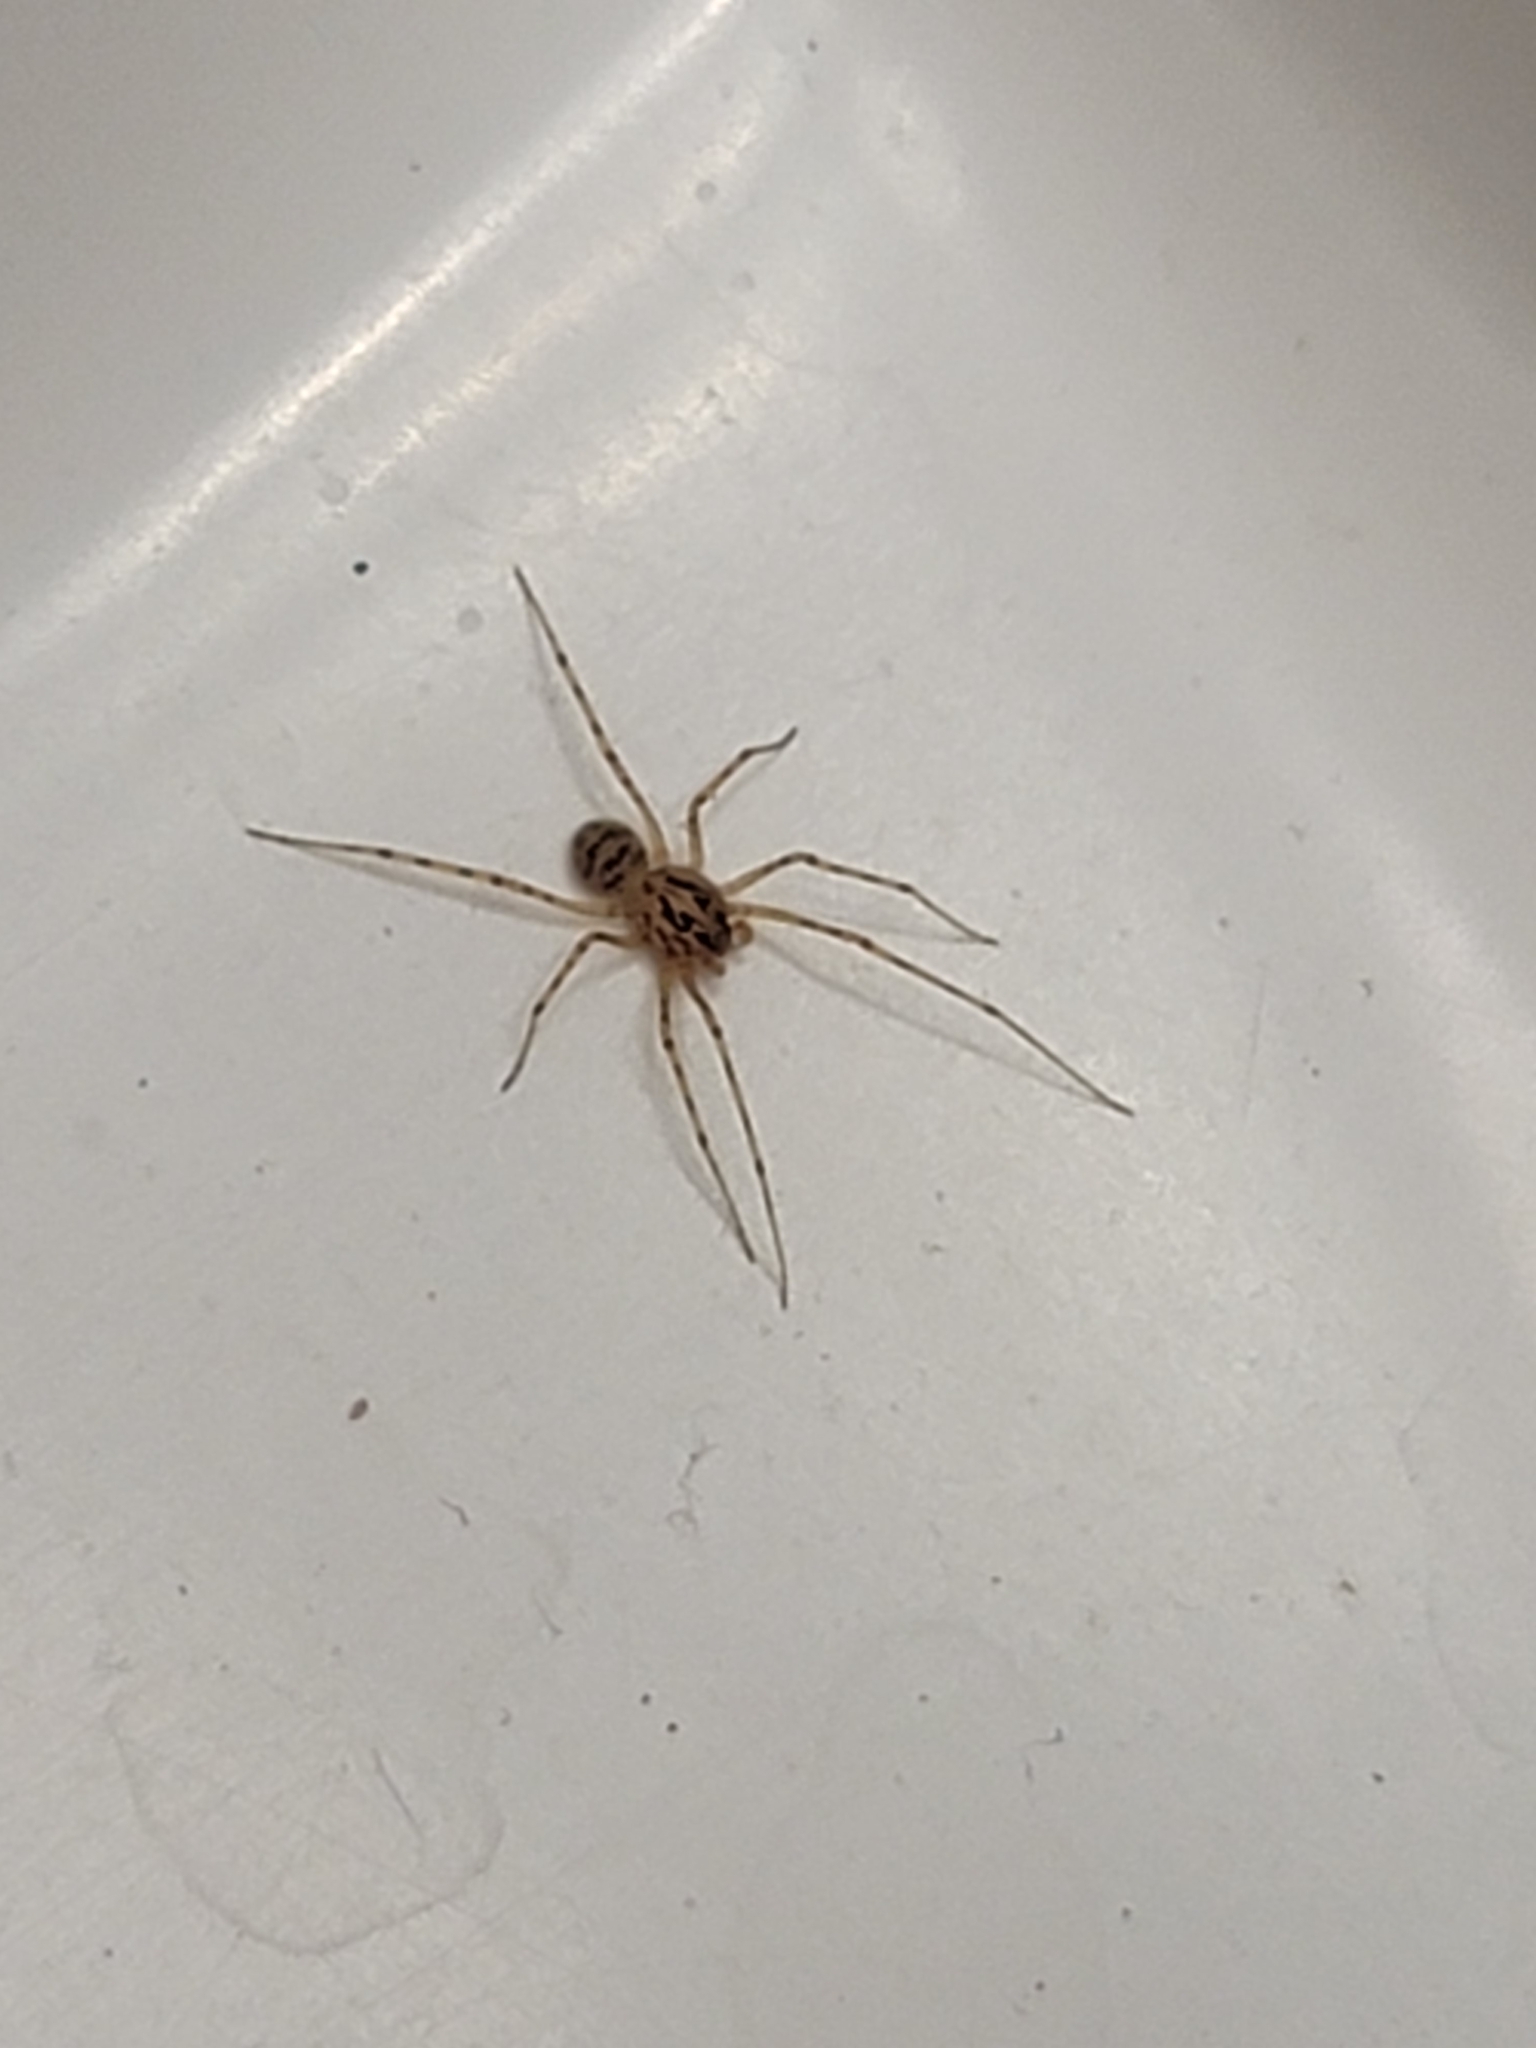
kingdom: Animalia
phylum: Arthropoda
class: Arachnida
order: Araneae
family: Scytodidae
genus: Scytodes
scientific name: Scytodes thoracica
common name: Spitting spider
